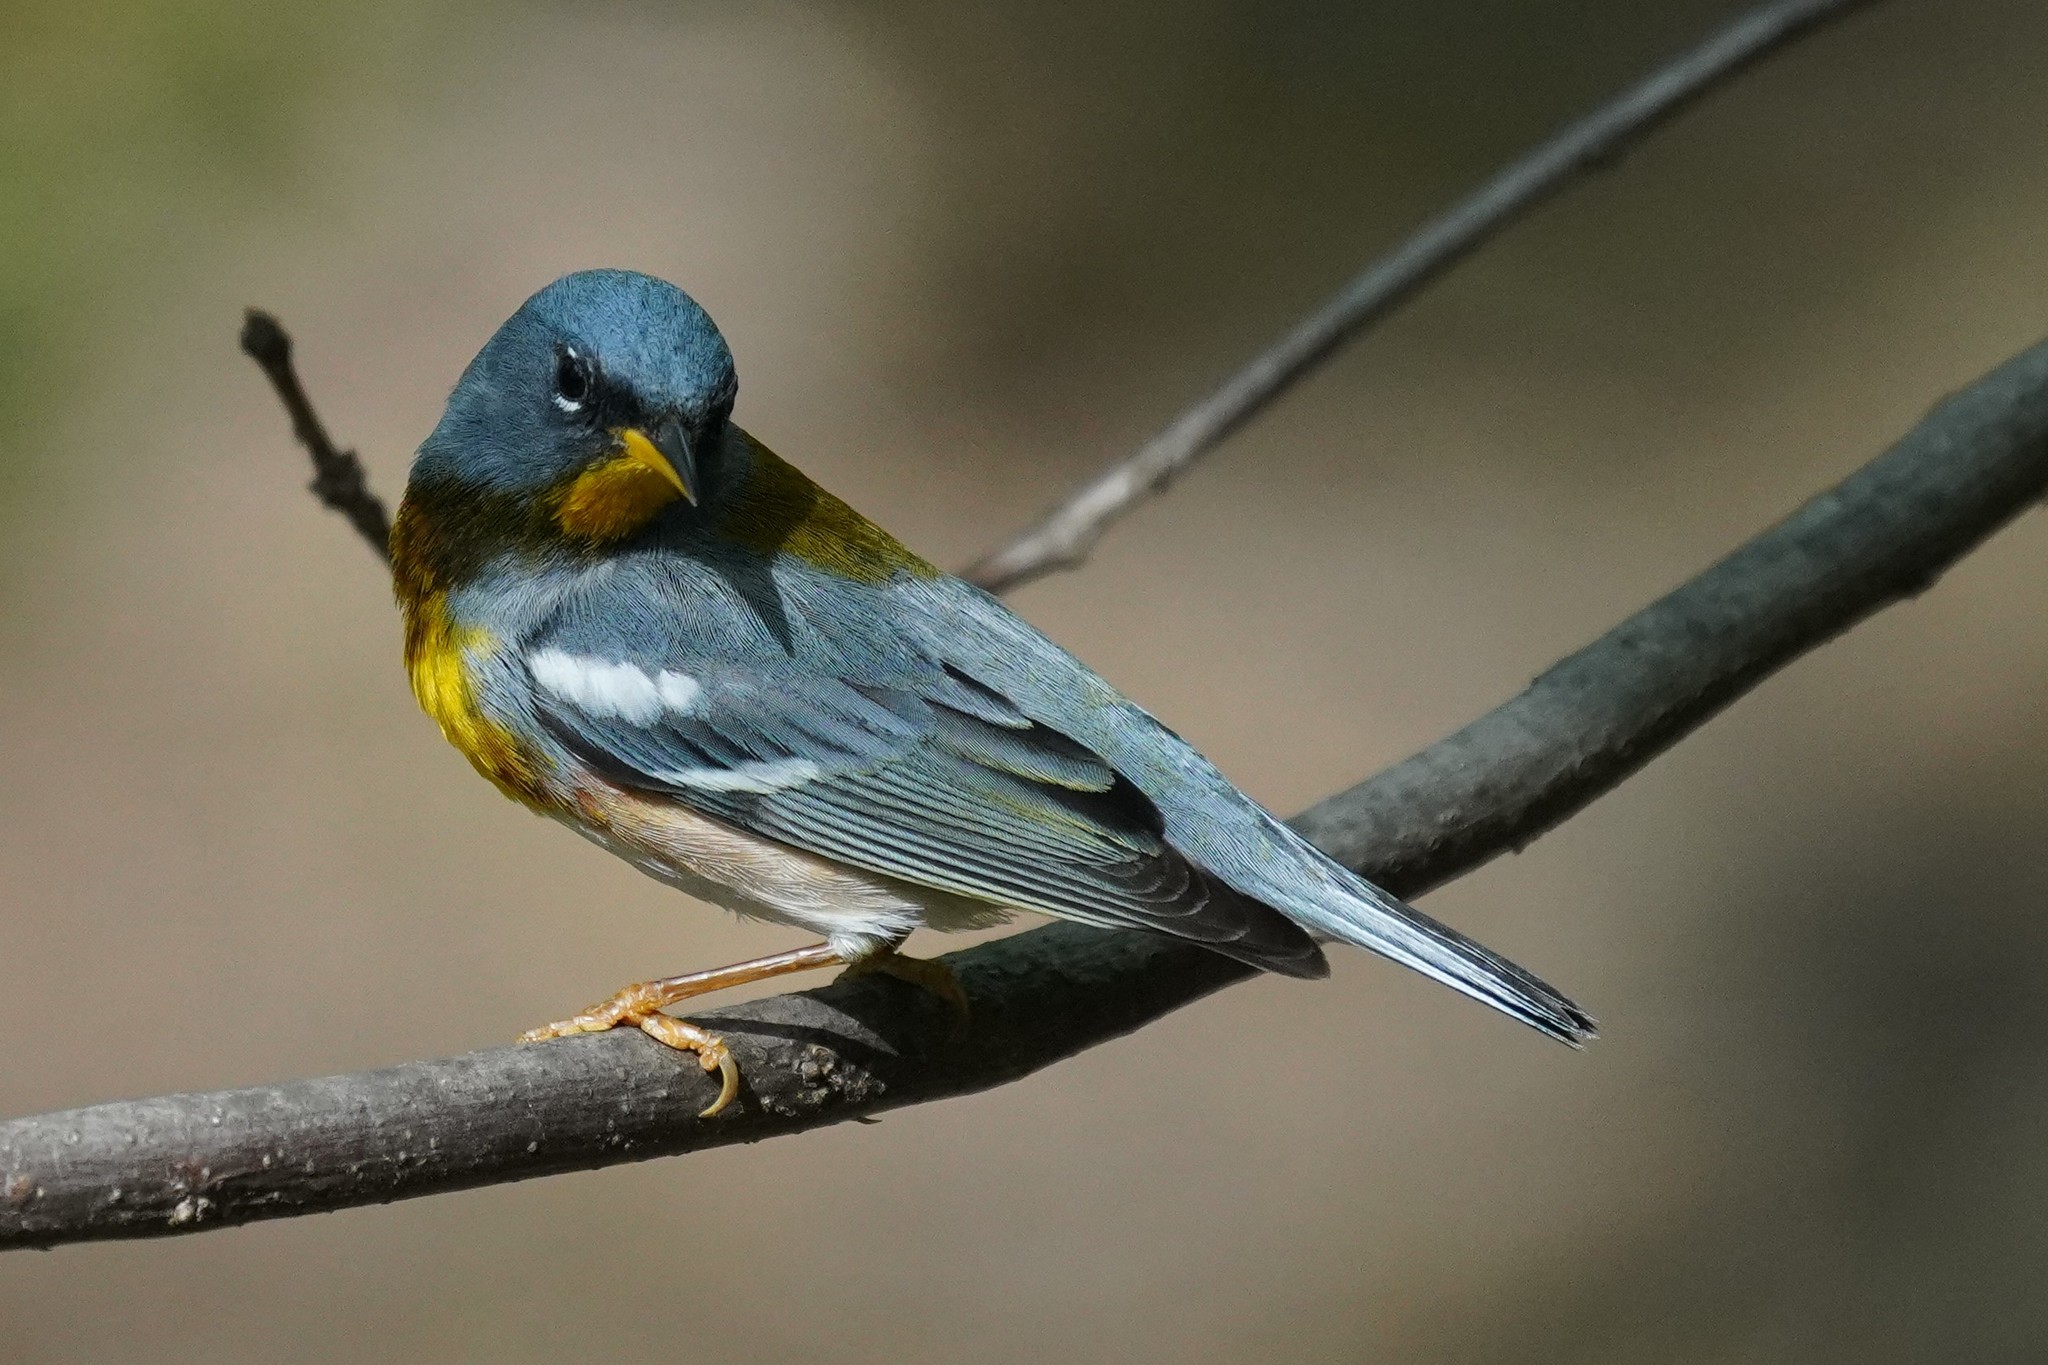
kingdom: Animalia
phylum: Chordata
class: Aves
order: Passeriformes
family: Parulidae
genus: Setophaga
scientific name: Setophaga americana
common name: Northern parula
